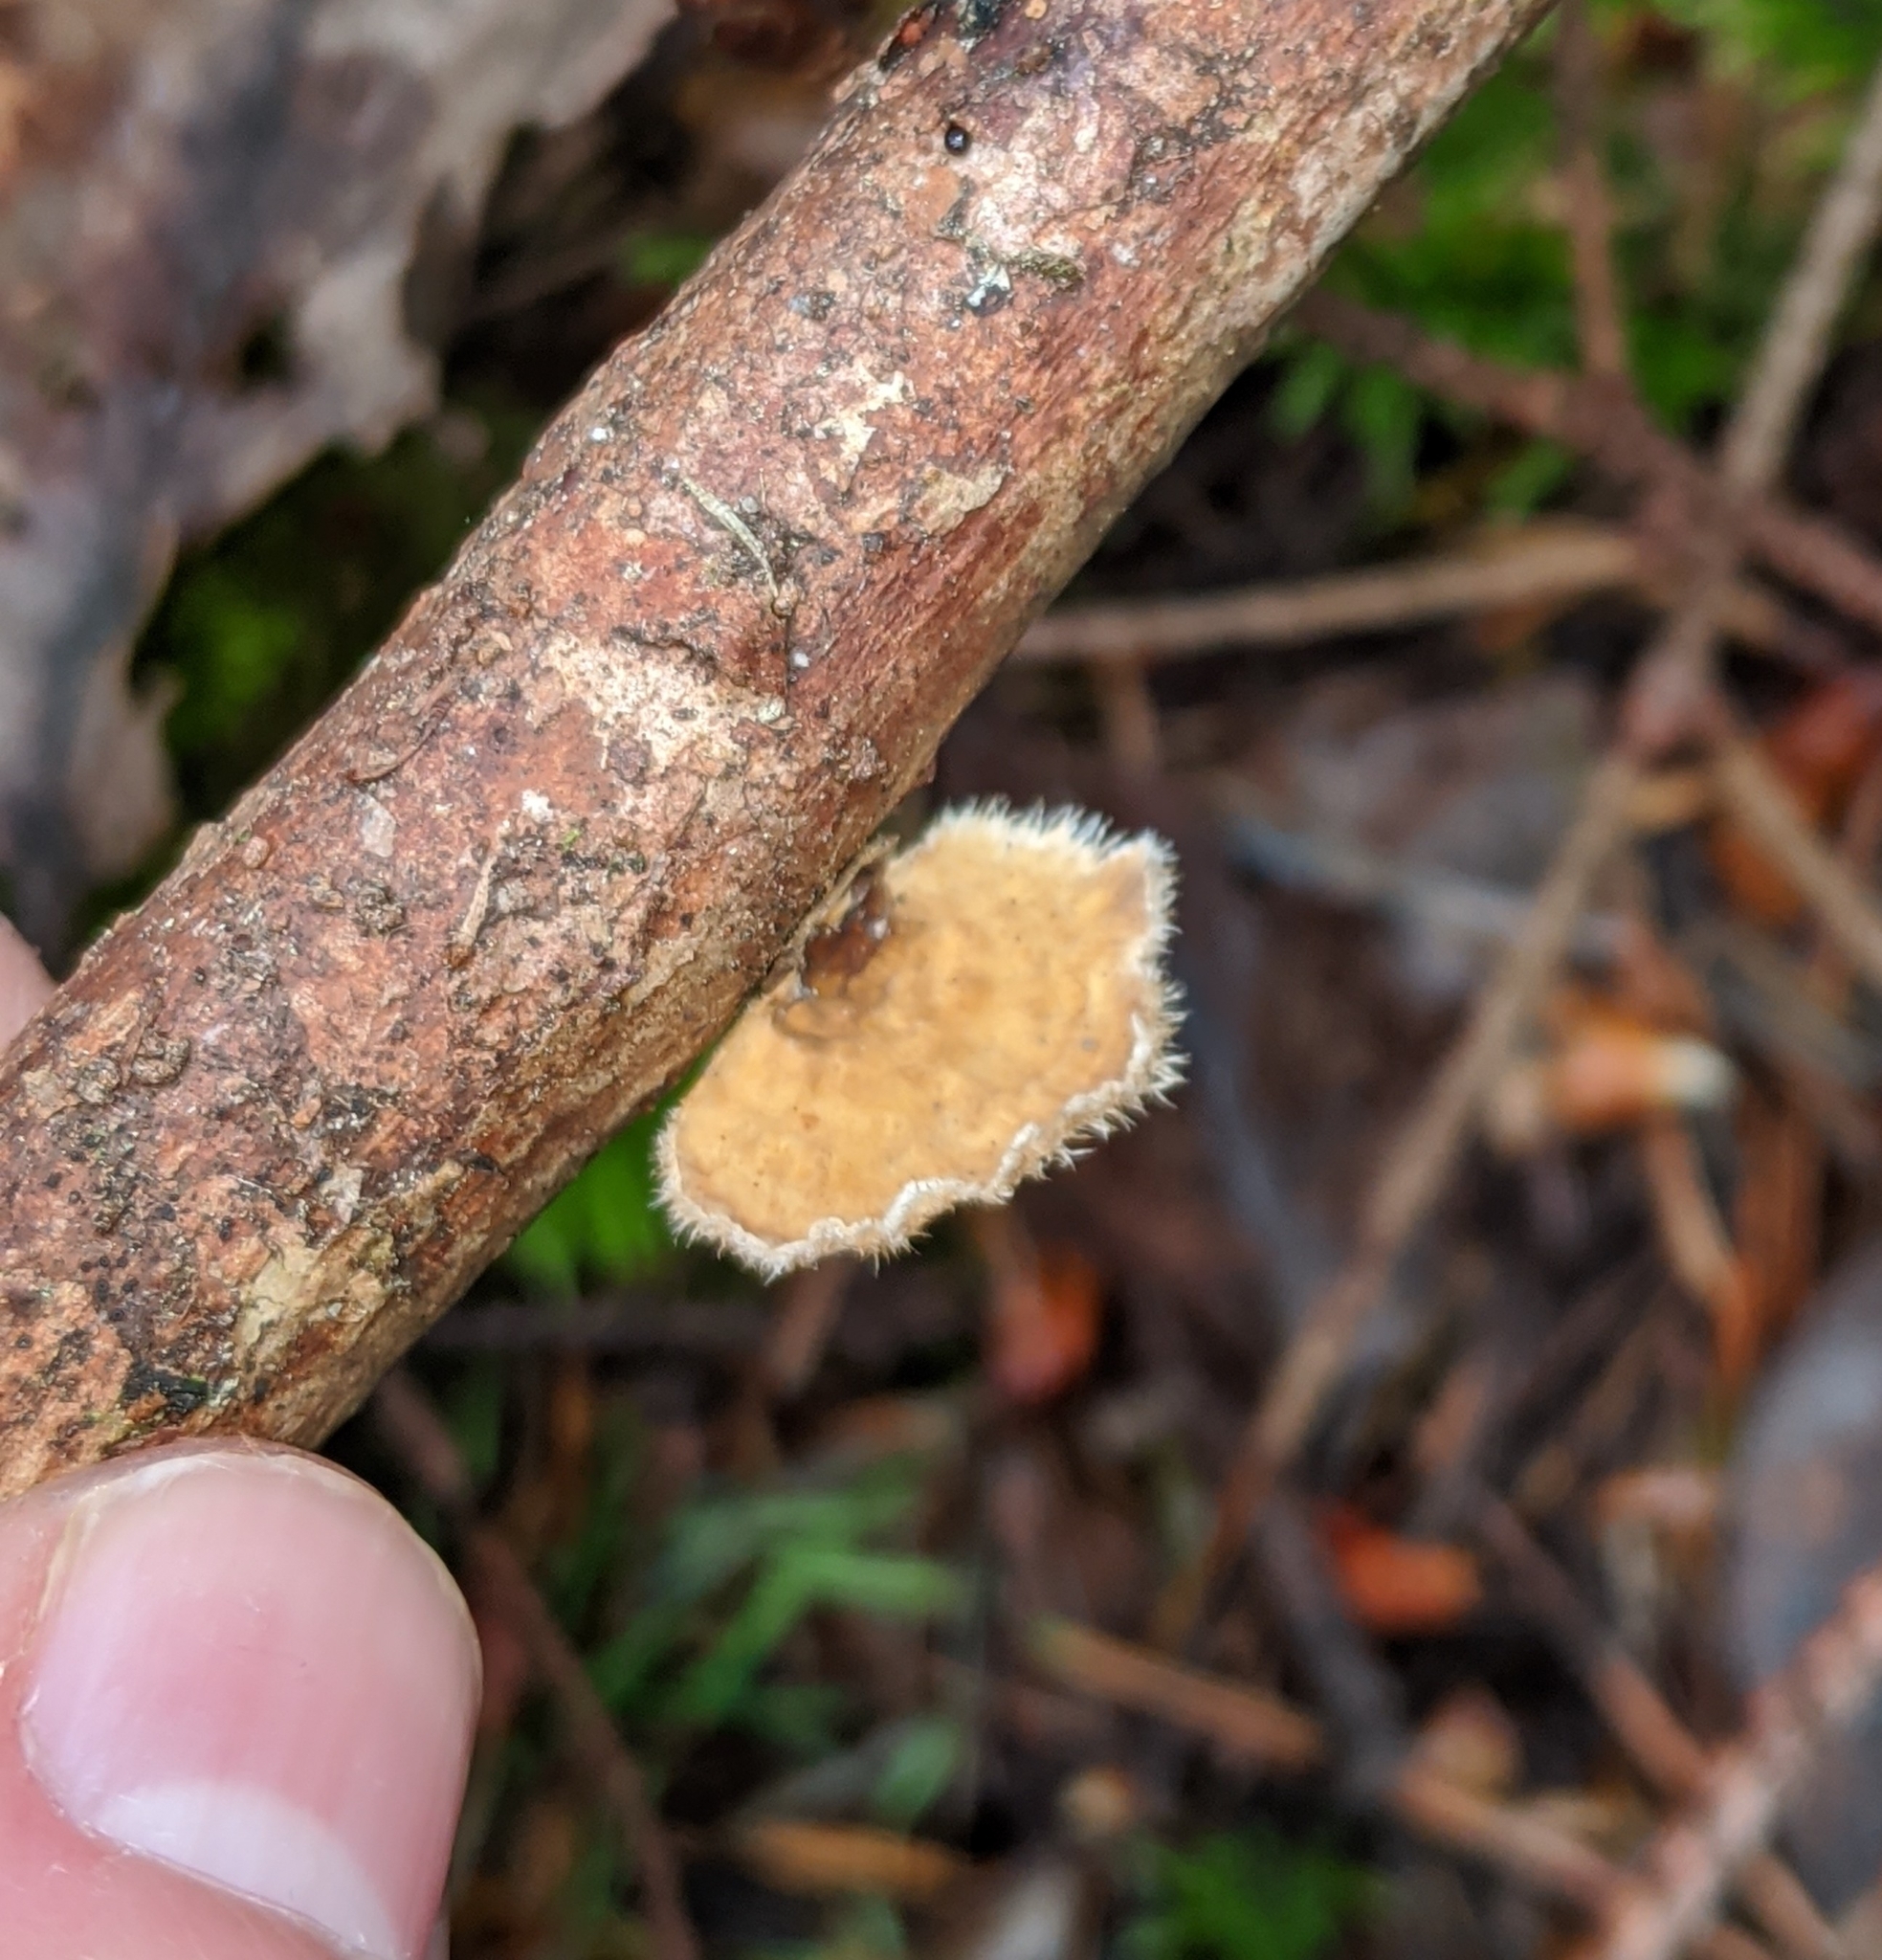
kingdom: Fungi
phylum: Basidiomycota
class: Agaricomycetes
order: Russulales
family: Stereaceae
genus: Stereum
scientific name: Stereum ochraceoflavum
